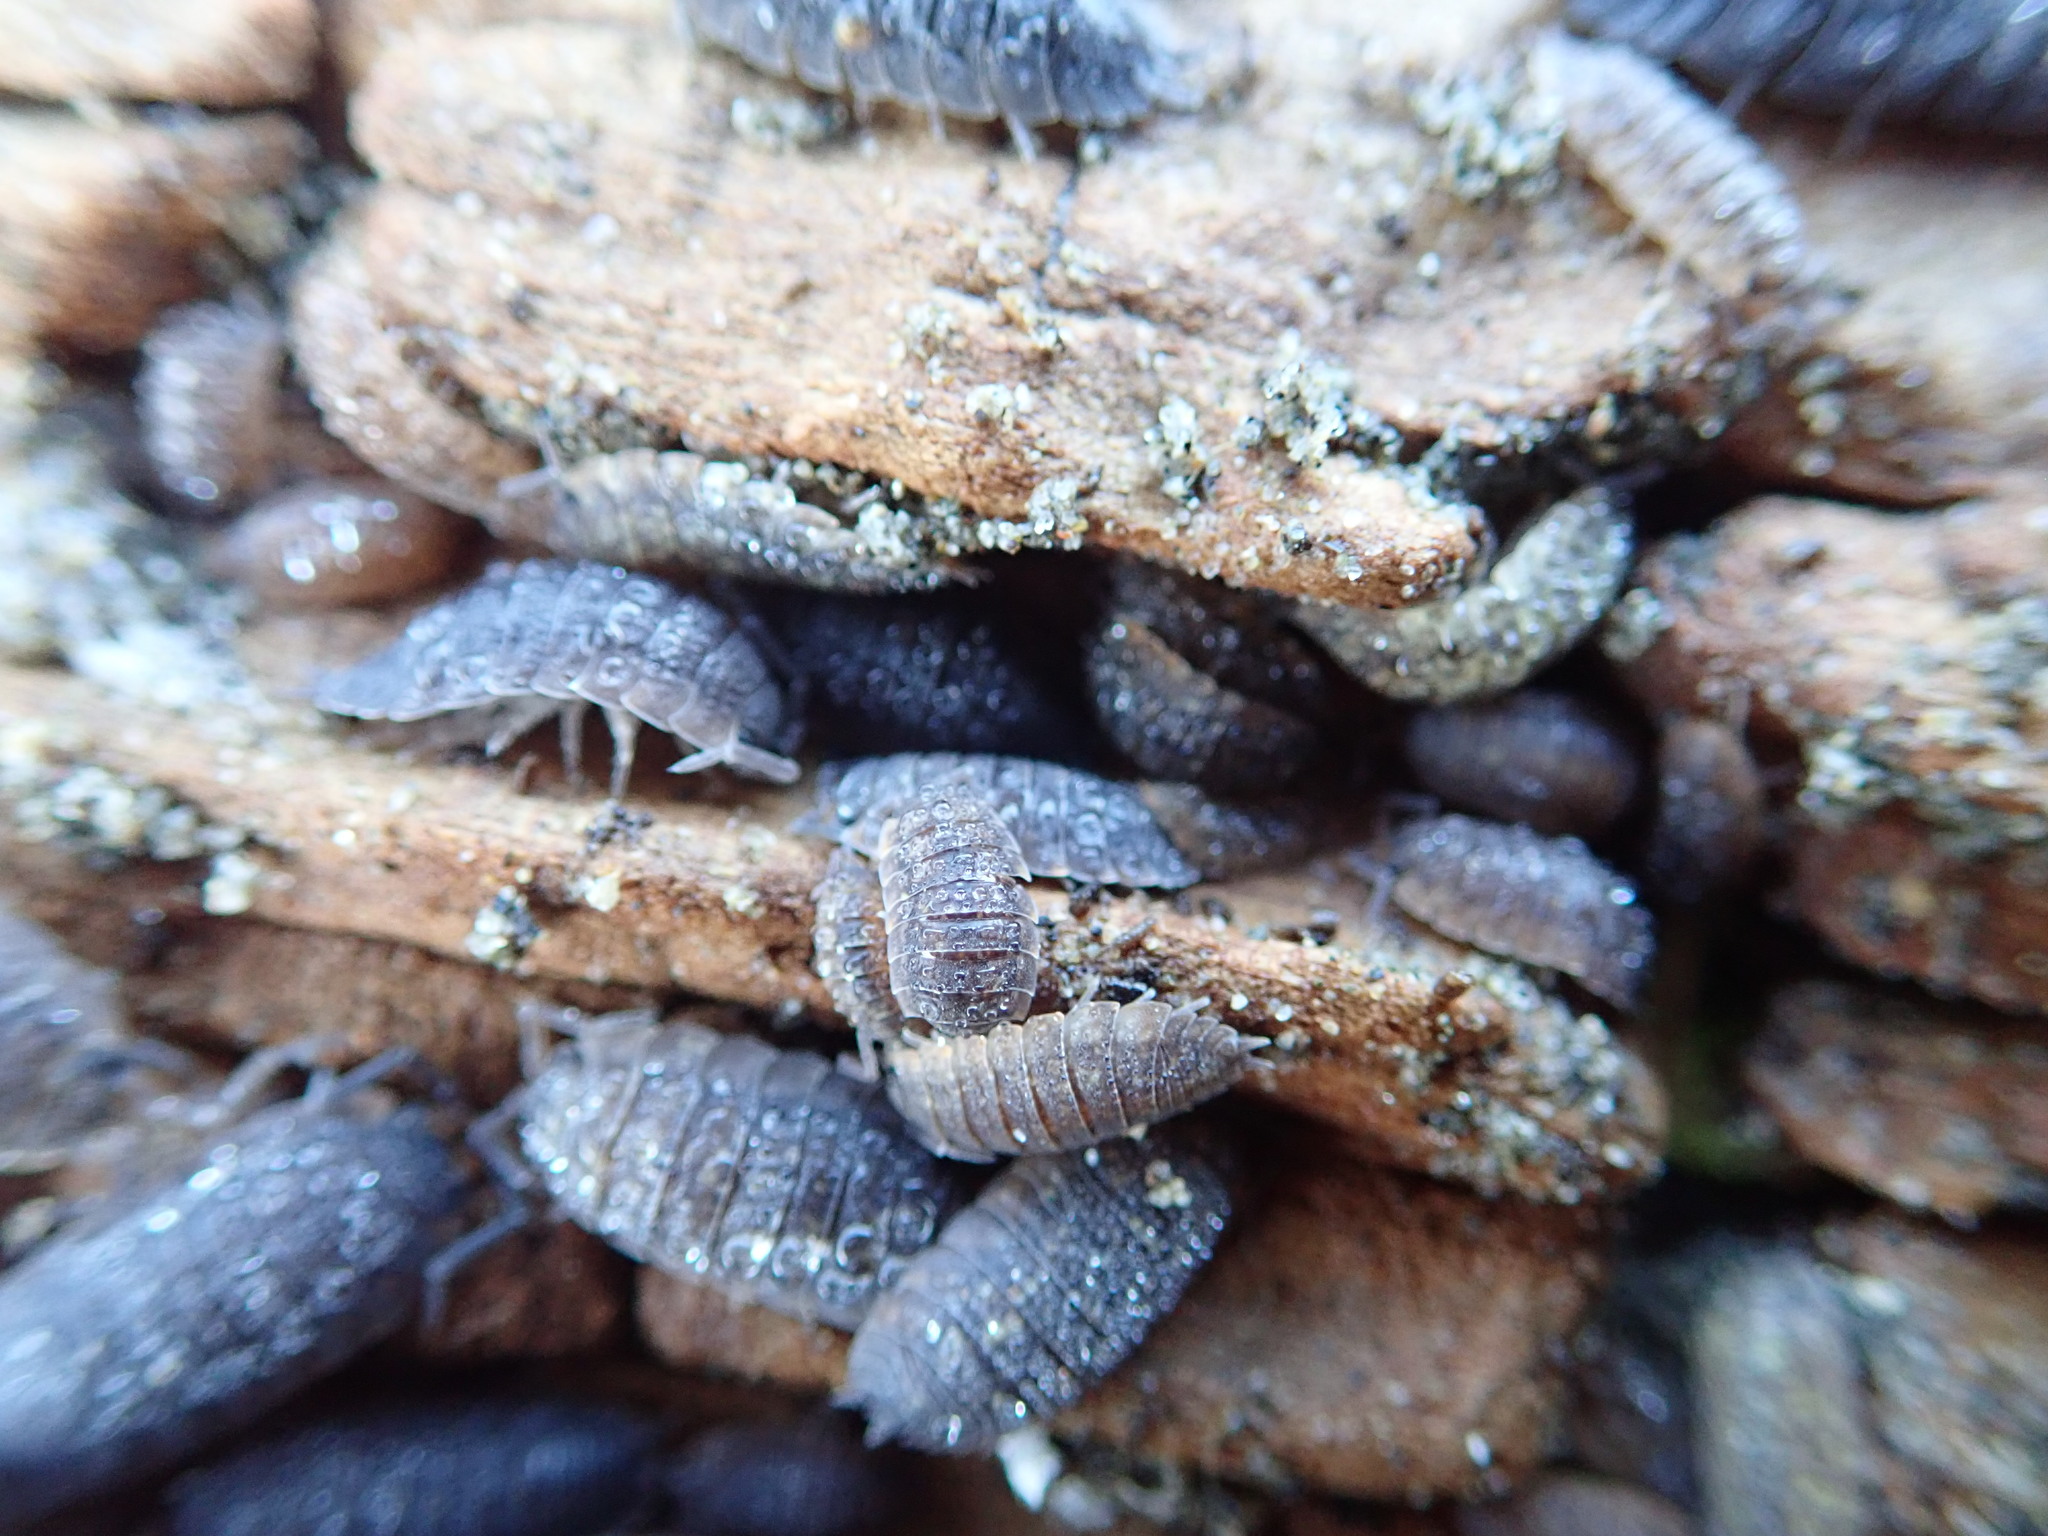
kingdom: Animalia
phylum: Arthropoda
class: Malacostraca
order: Isopoda
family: Porcellionidae
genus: Porcellio
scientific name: Porcellio scaber
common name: Common rough woodlouse
